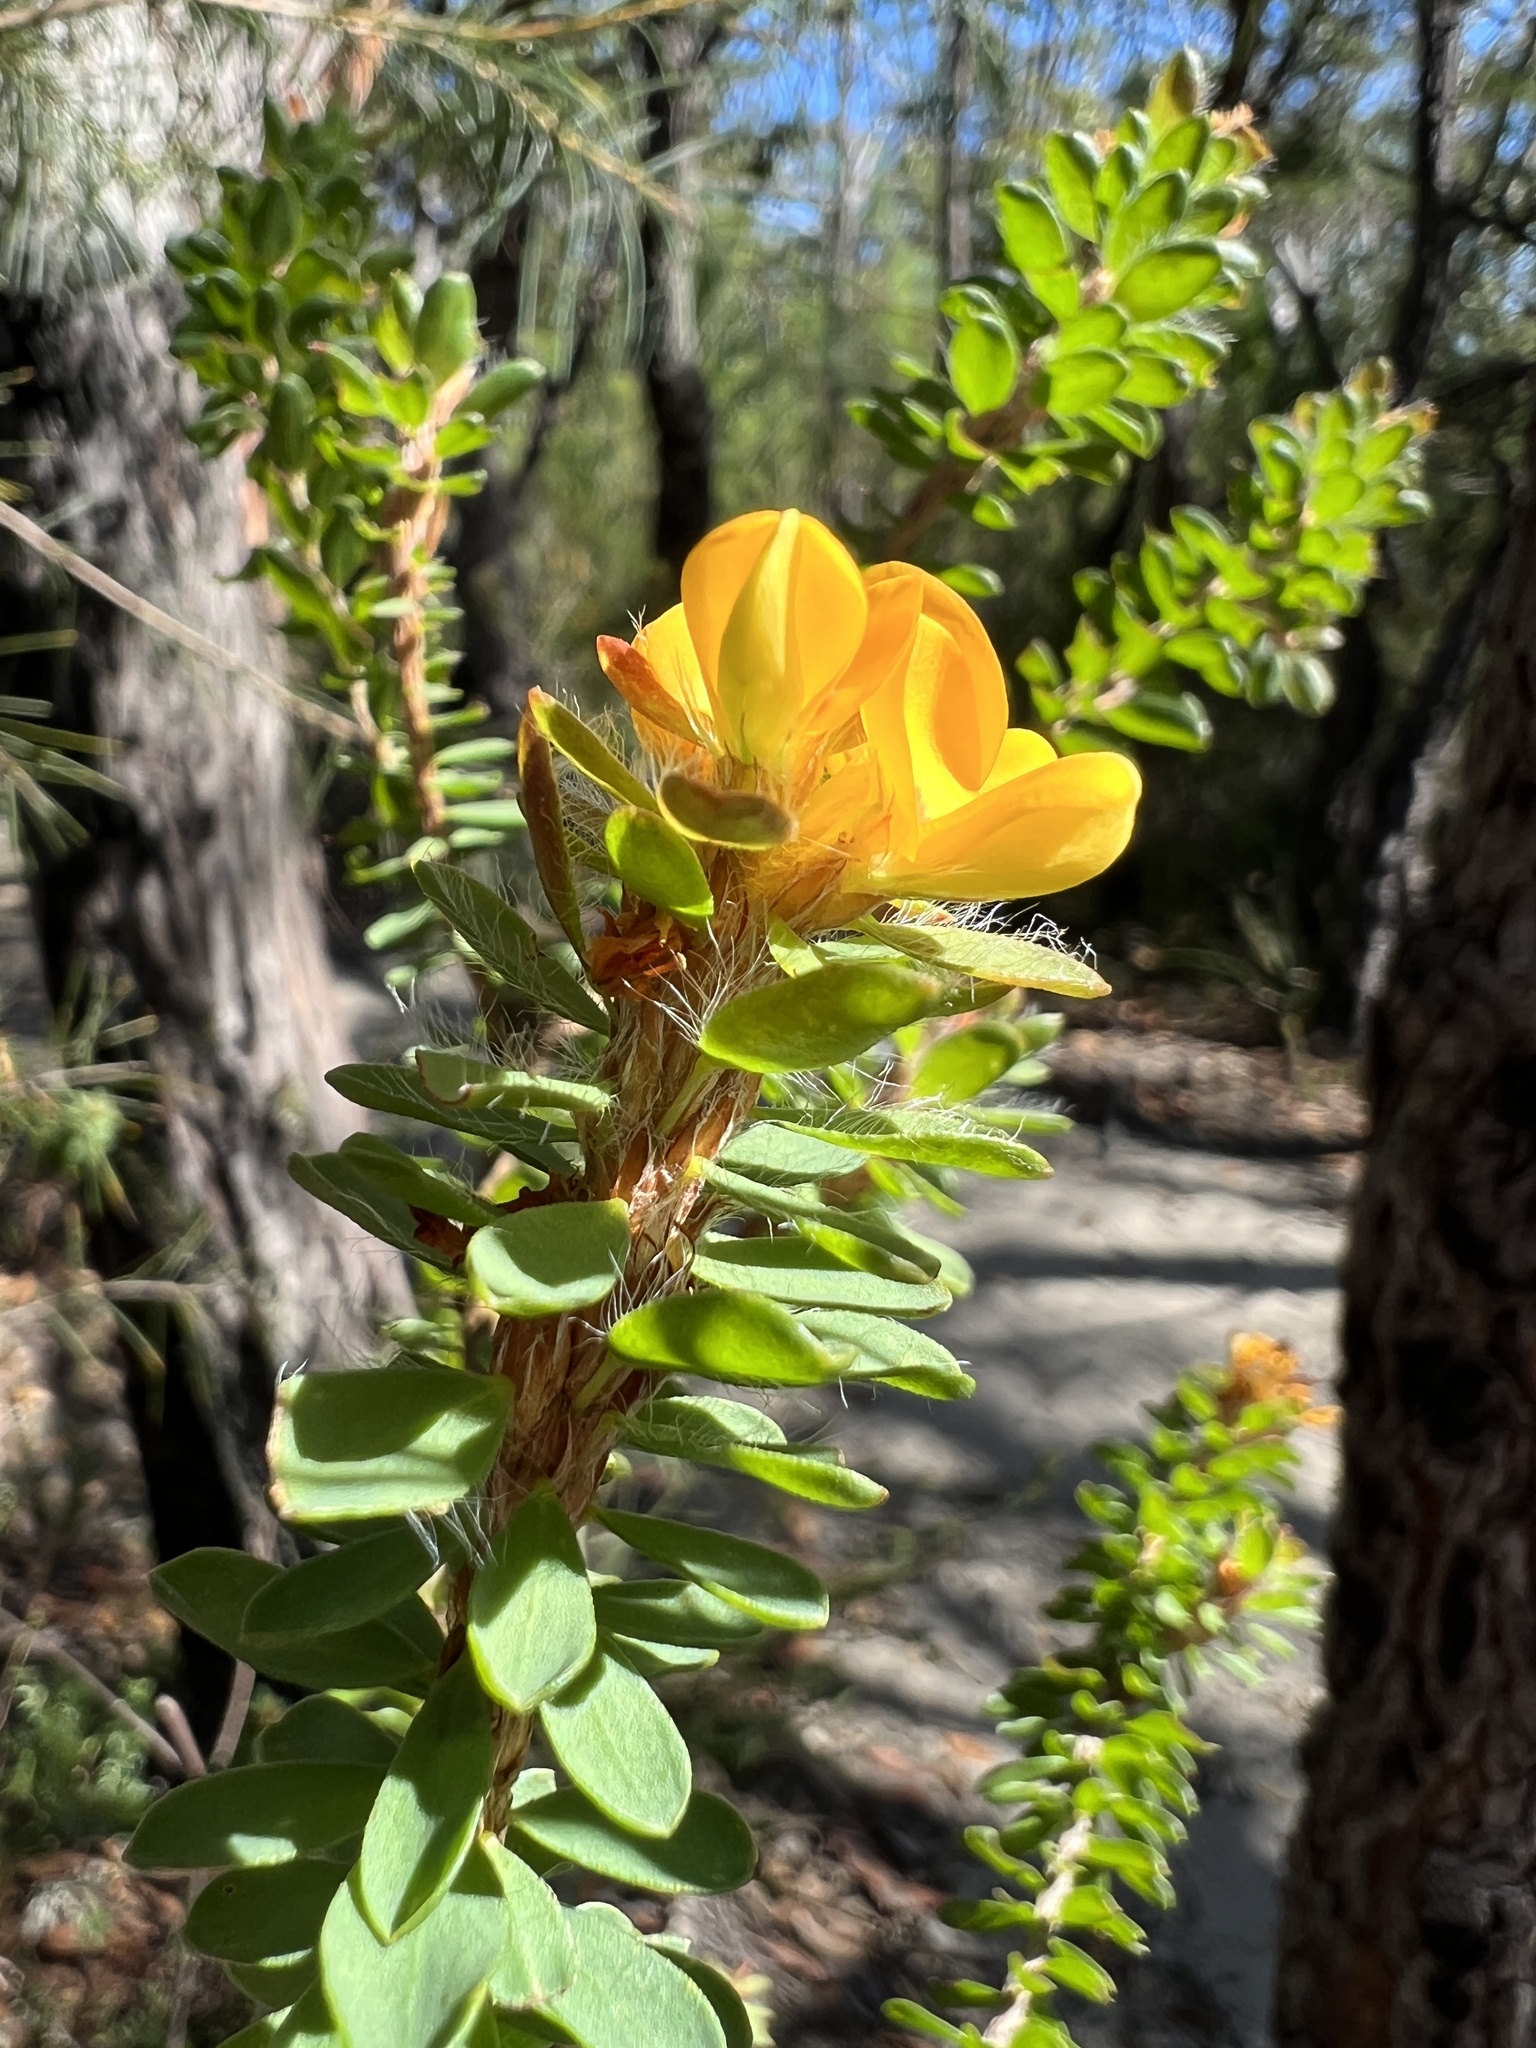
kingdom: Plantae
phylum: Tracheophyta
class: Magnoliopsida
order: Fabales
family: Fabaceae
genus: Pultenaea
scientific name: Pultenaea tuberculata
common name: Wreath bush-pea
